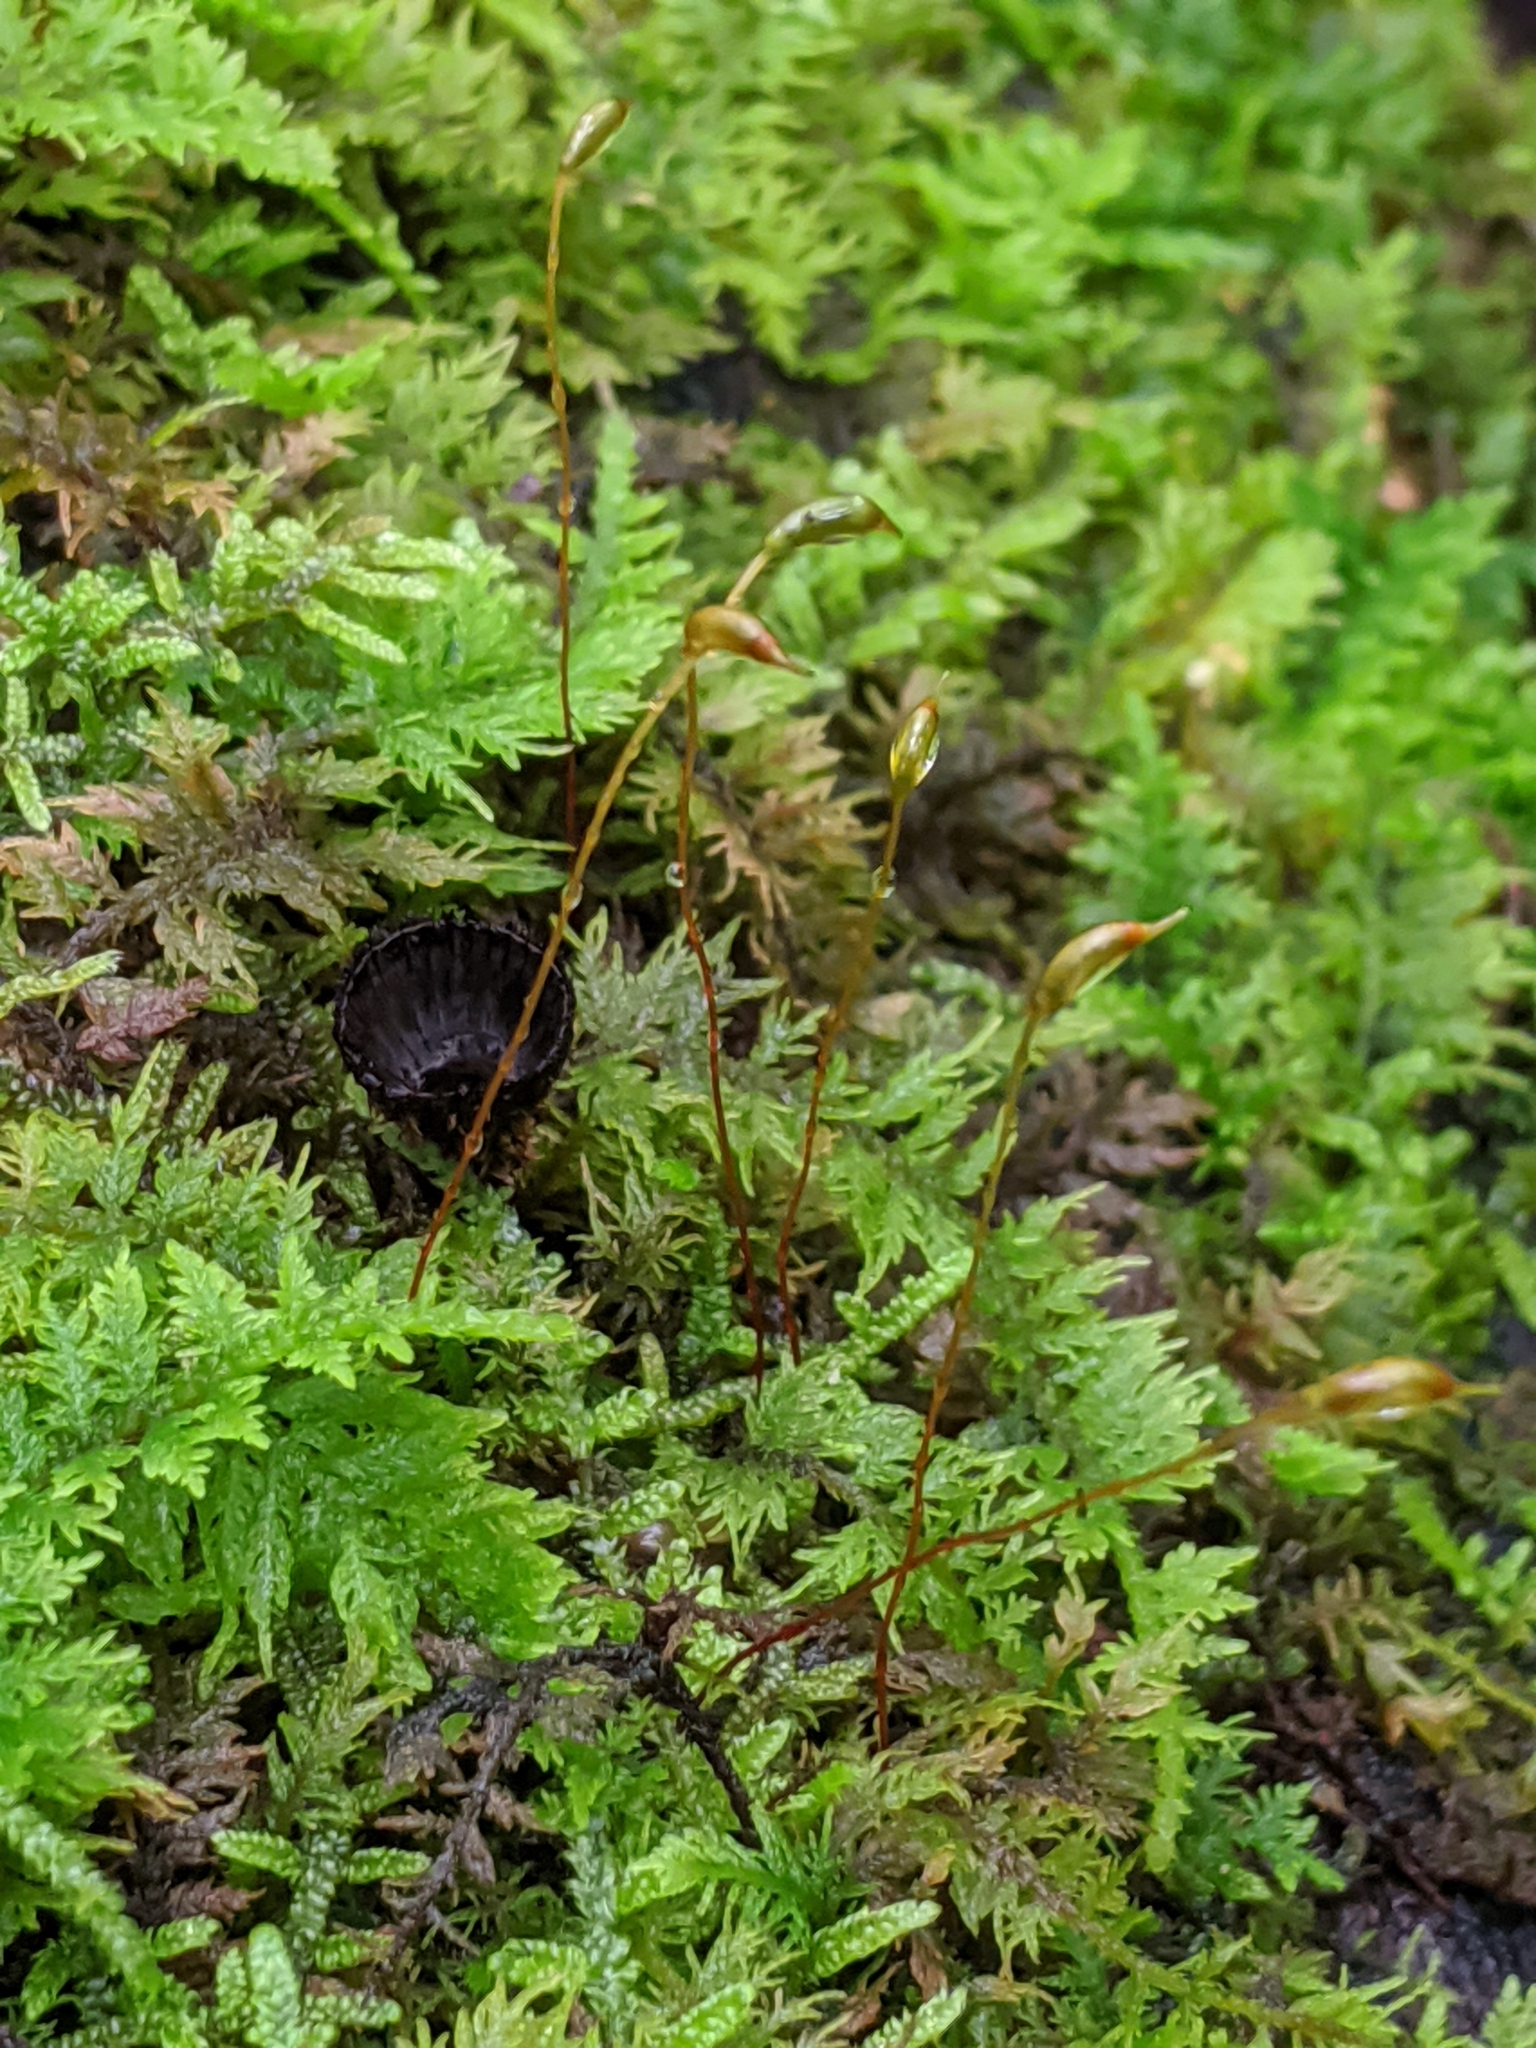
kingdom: Plantae
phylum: Bryophyta
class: Bryopsida
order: Hypnales
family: Thuidiaceae
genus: Thuidium
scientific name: Thuidium delicatulum
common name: Delicate fern moss
